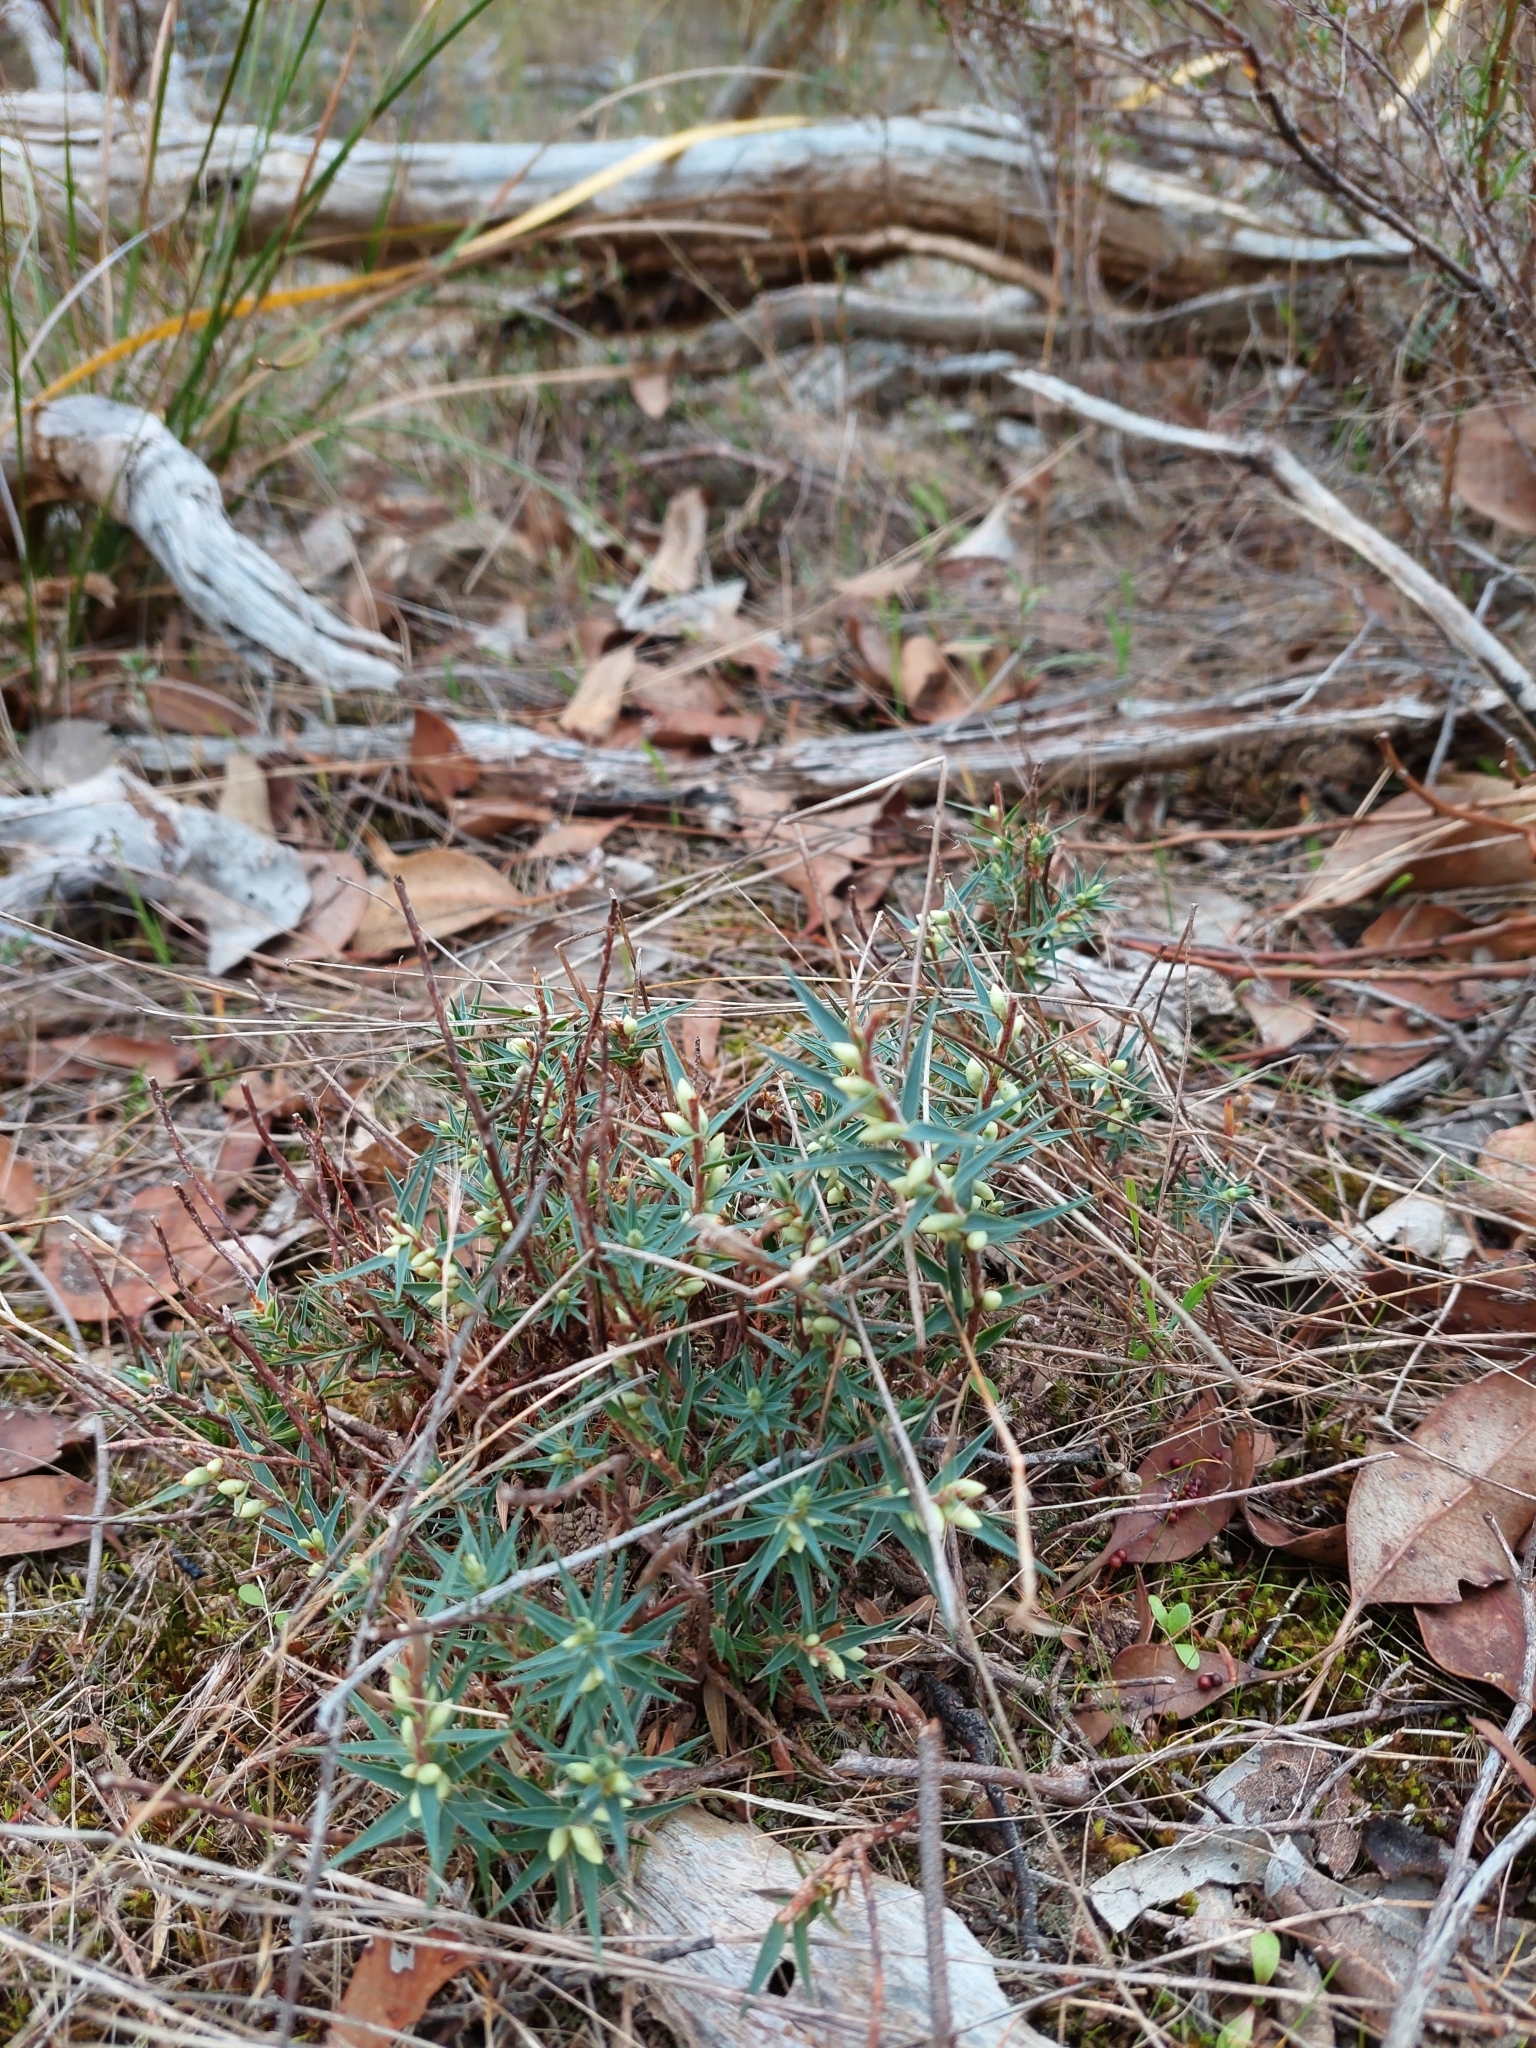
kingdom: Plantae
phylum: Tracheophyta
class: Magnoliopsida
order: Ericales
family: Ericaceae
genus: Melichrus
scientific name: Melichrus urceolatus
